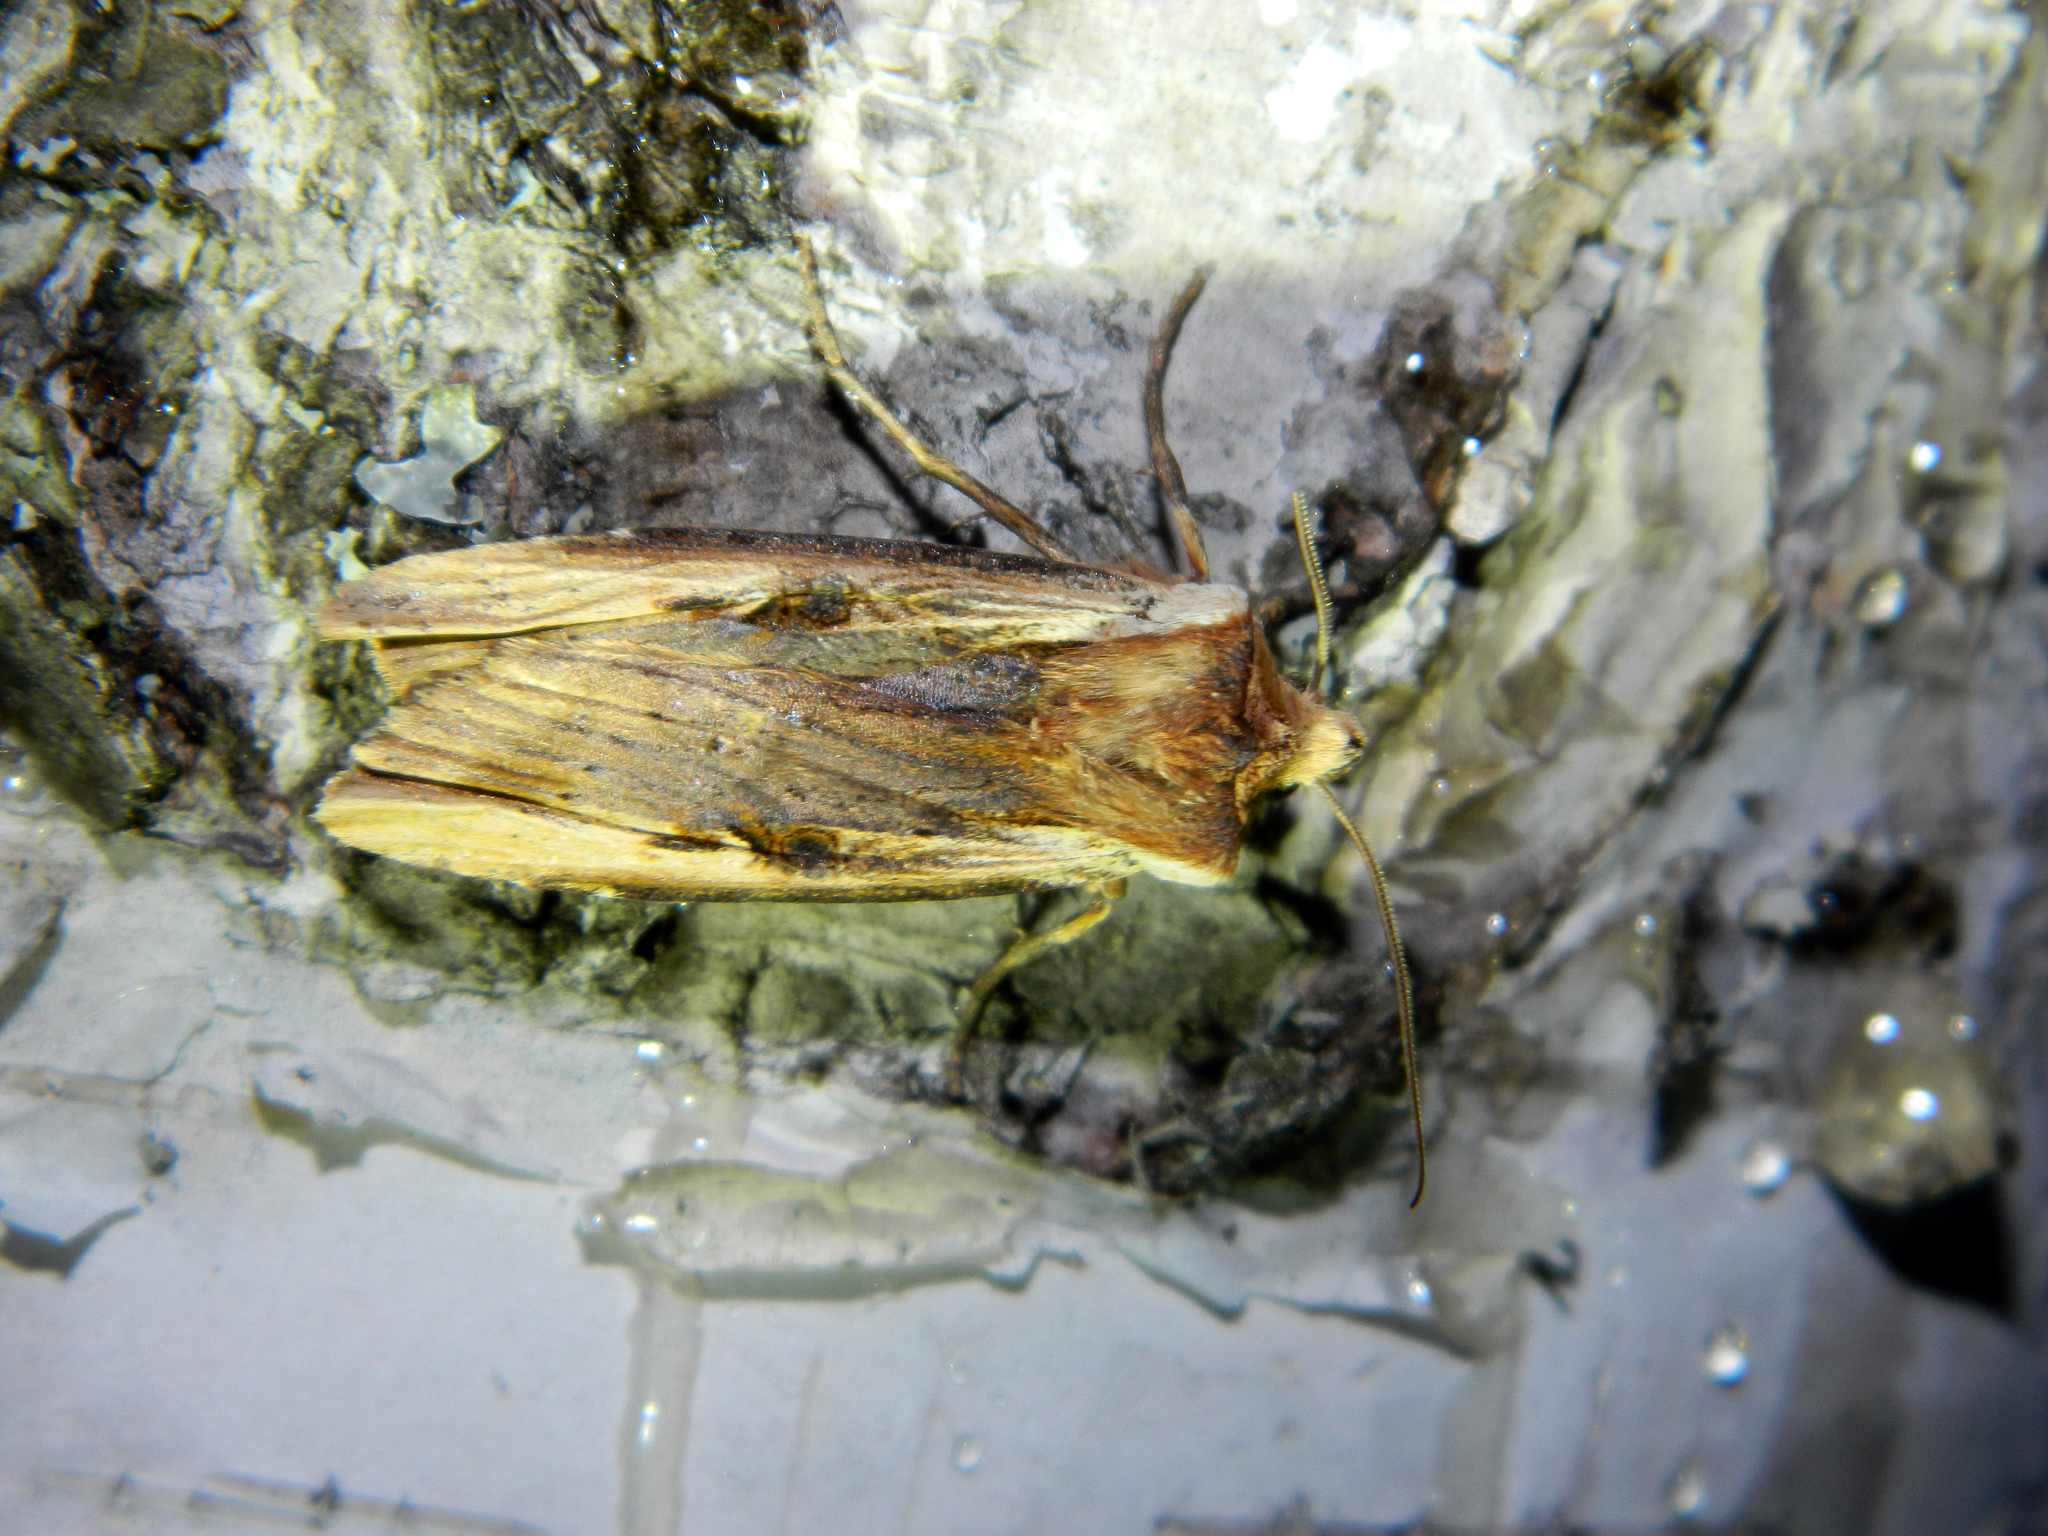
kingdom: Animalia
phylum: Arthropoda
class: Insecta
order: Lepidoptera
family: Noctuidae
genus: Xylena
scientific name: Xylena curvimacula
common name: Dot-and-dash swordgrass moth
